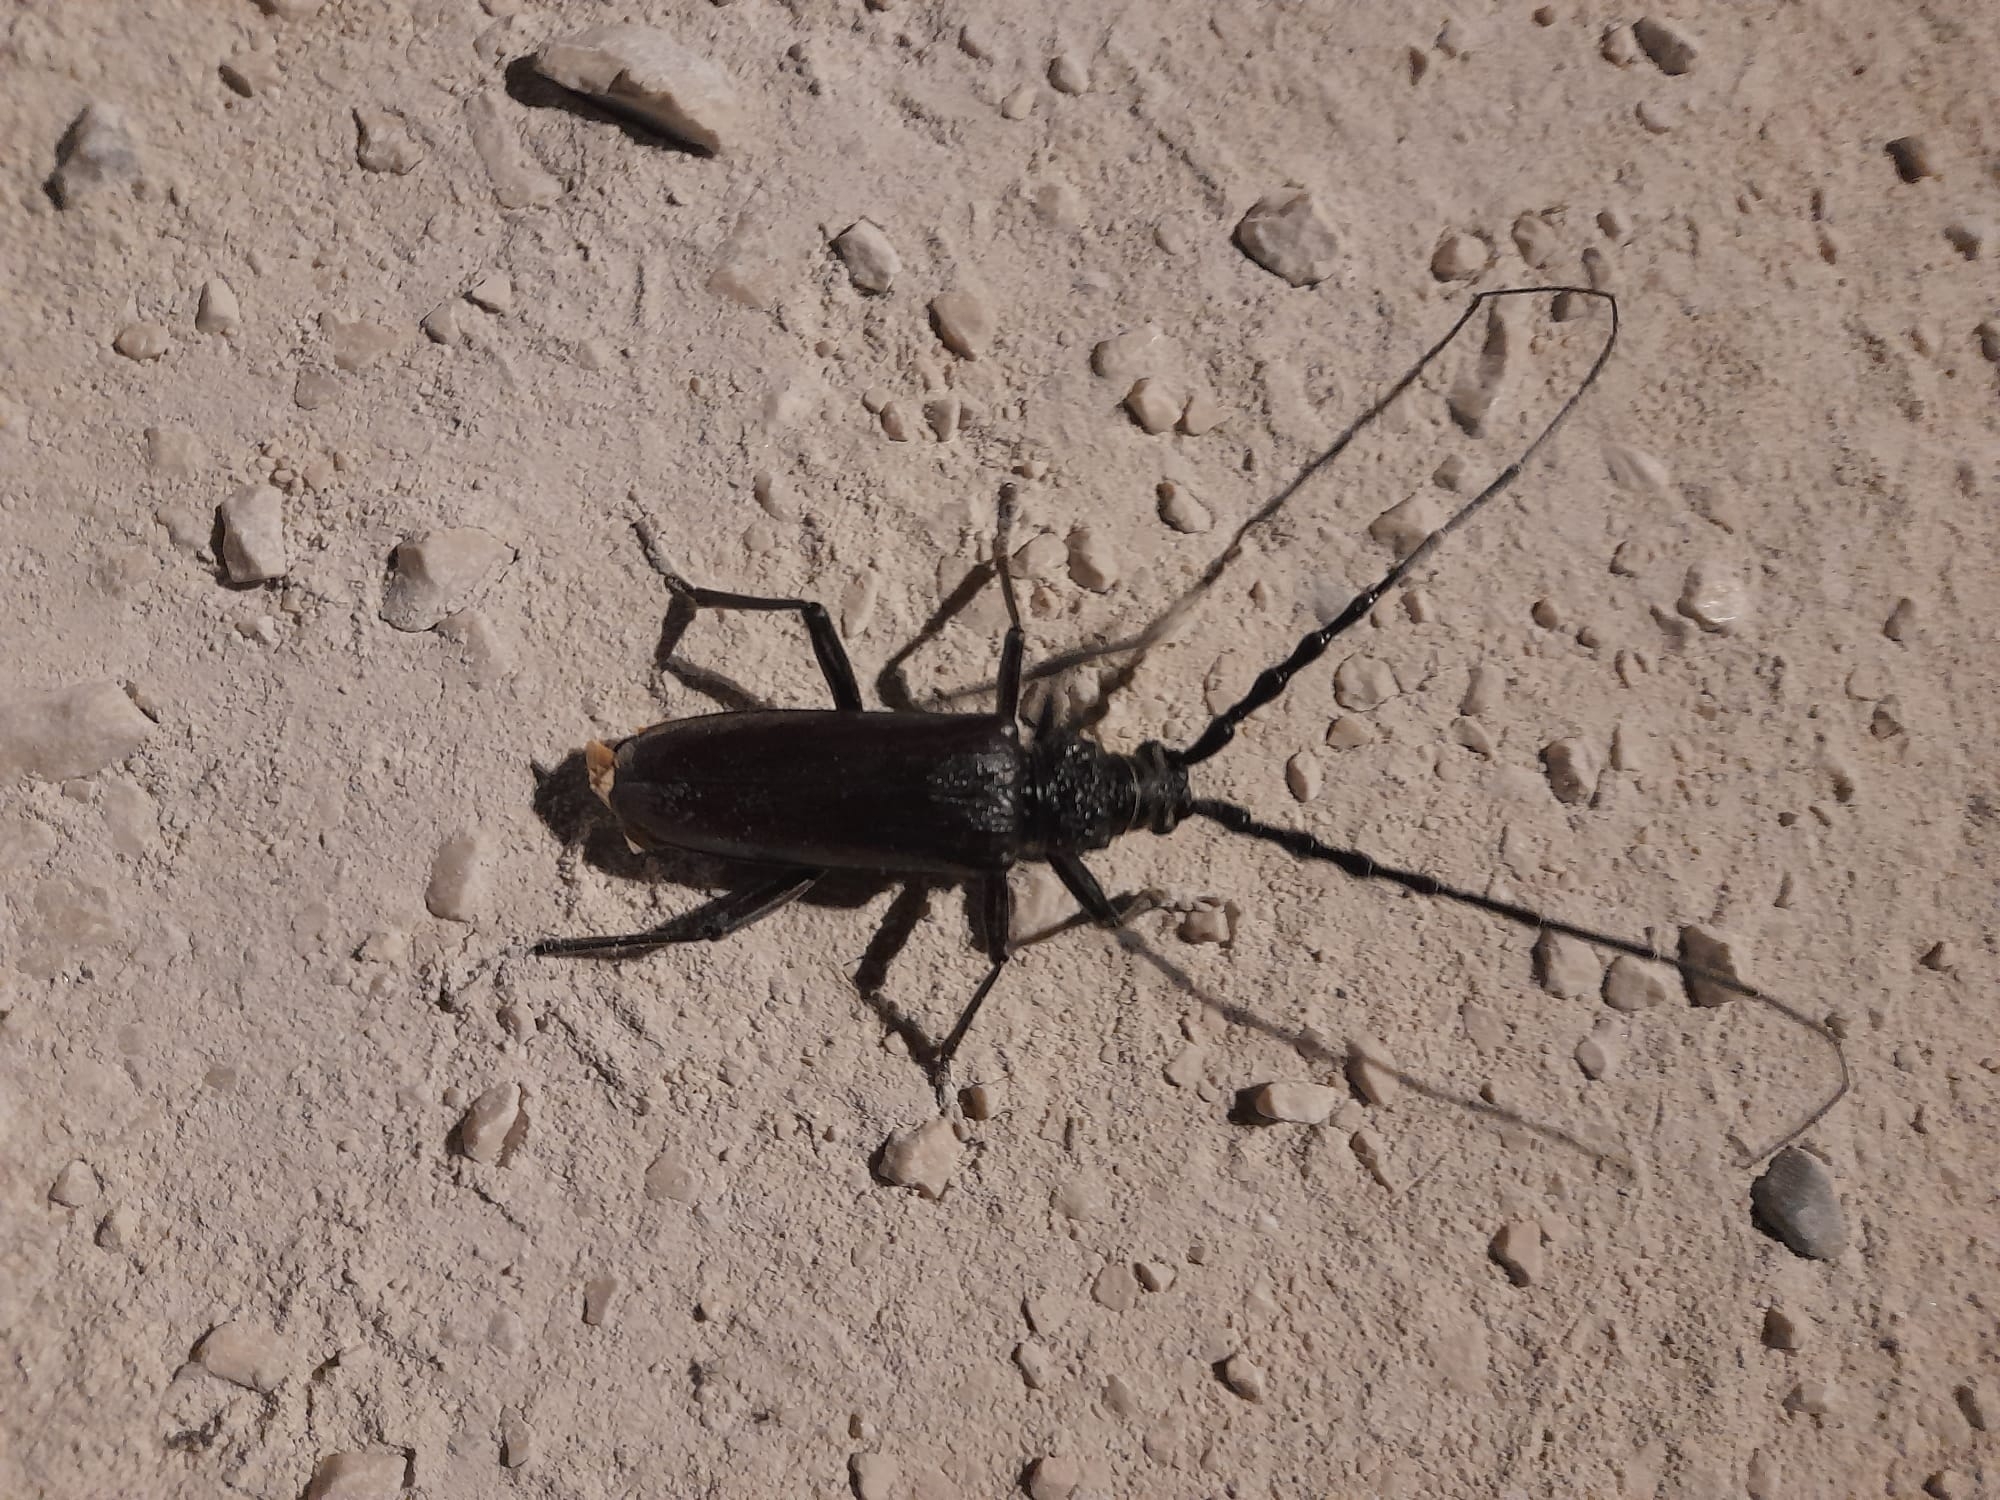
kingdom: Animalia
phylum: Arthropoda
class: Insecta
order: Coleoptera
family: Cerambycidae
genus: Cerambyx
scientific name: Cerambyx welensii
